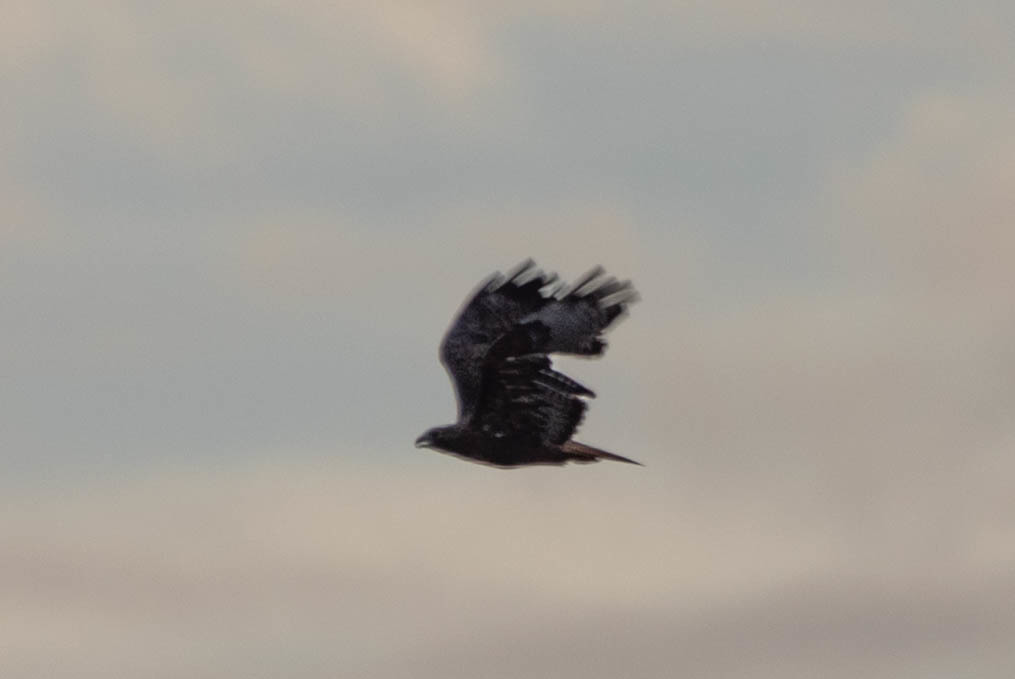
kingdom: Animalia
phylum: Chordata
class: Aves
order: Accipitriformes
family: Accipitridae
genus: Buteo
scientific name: Buteo jamaicensis
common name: Red-tailed hawk
